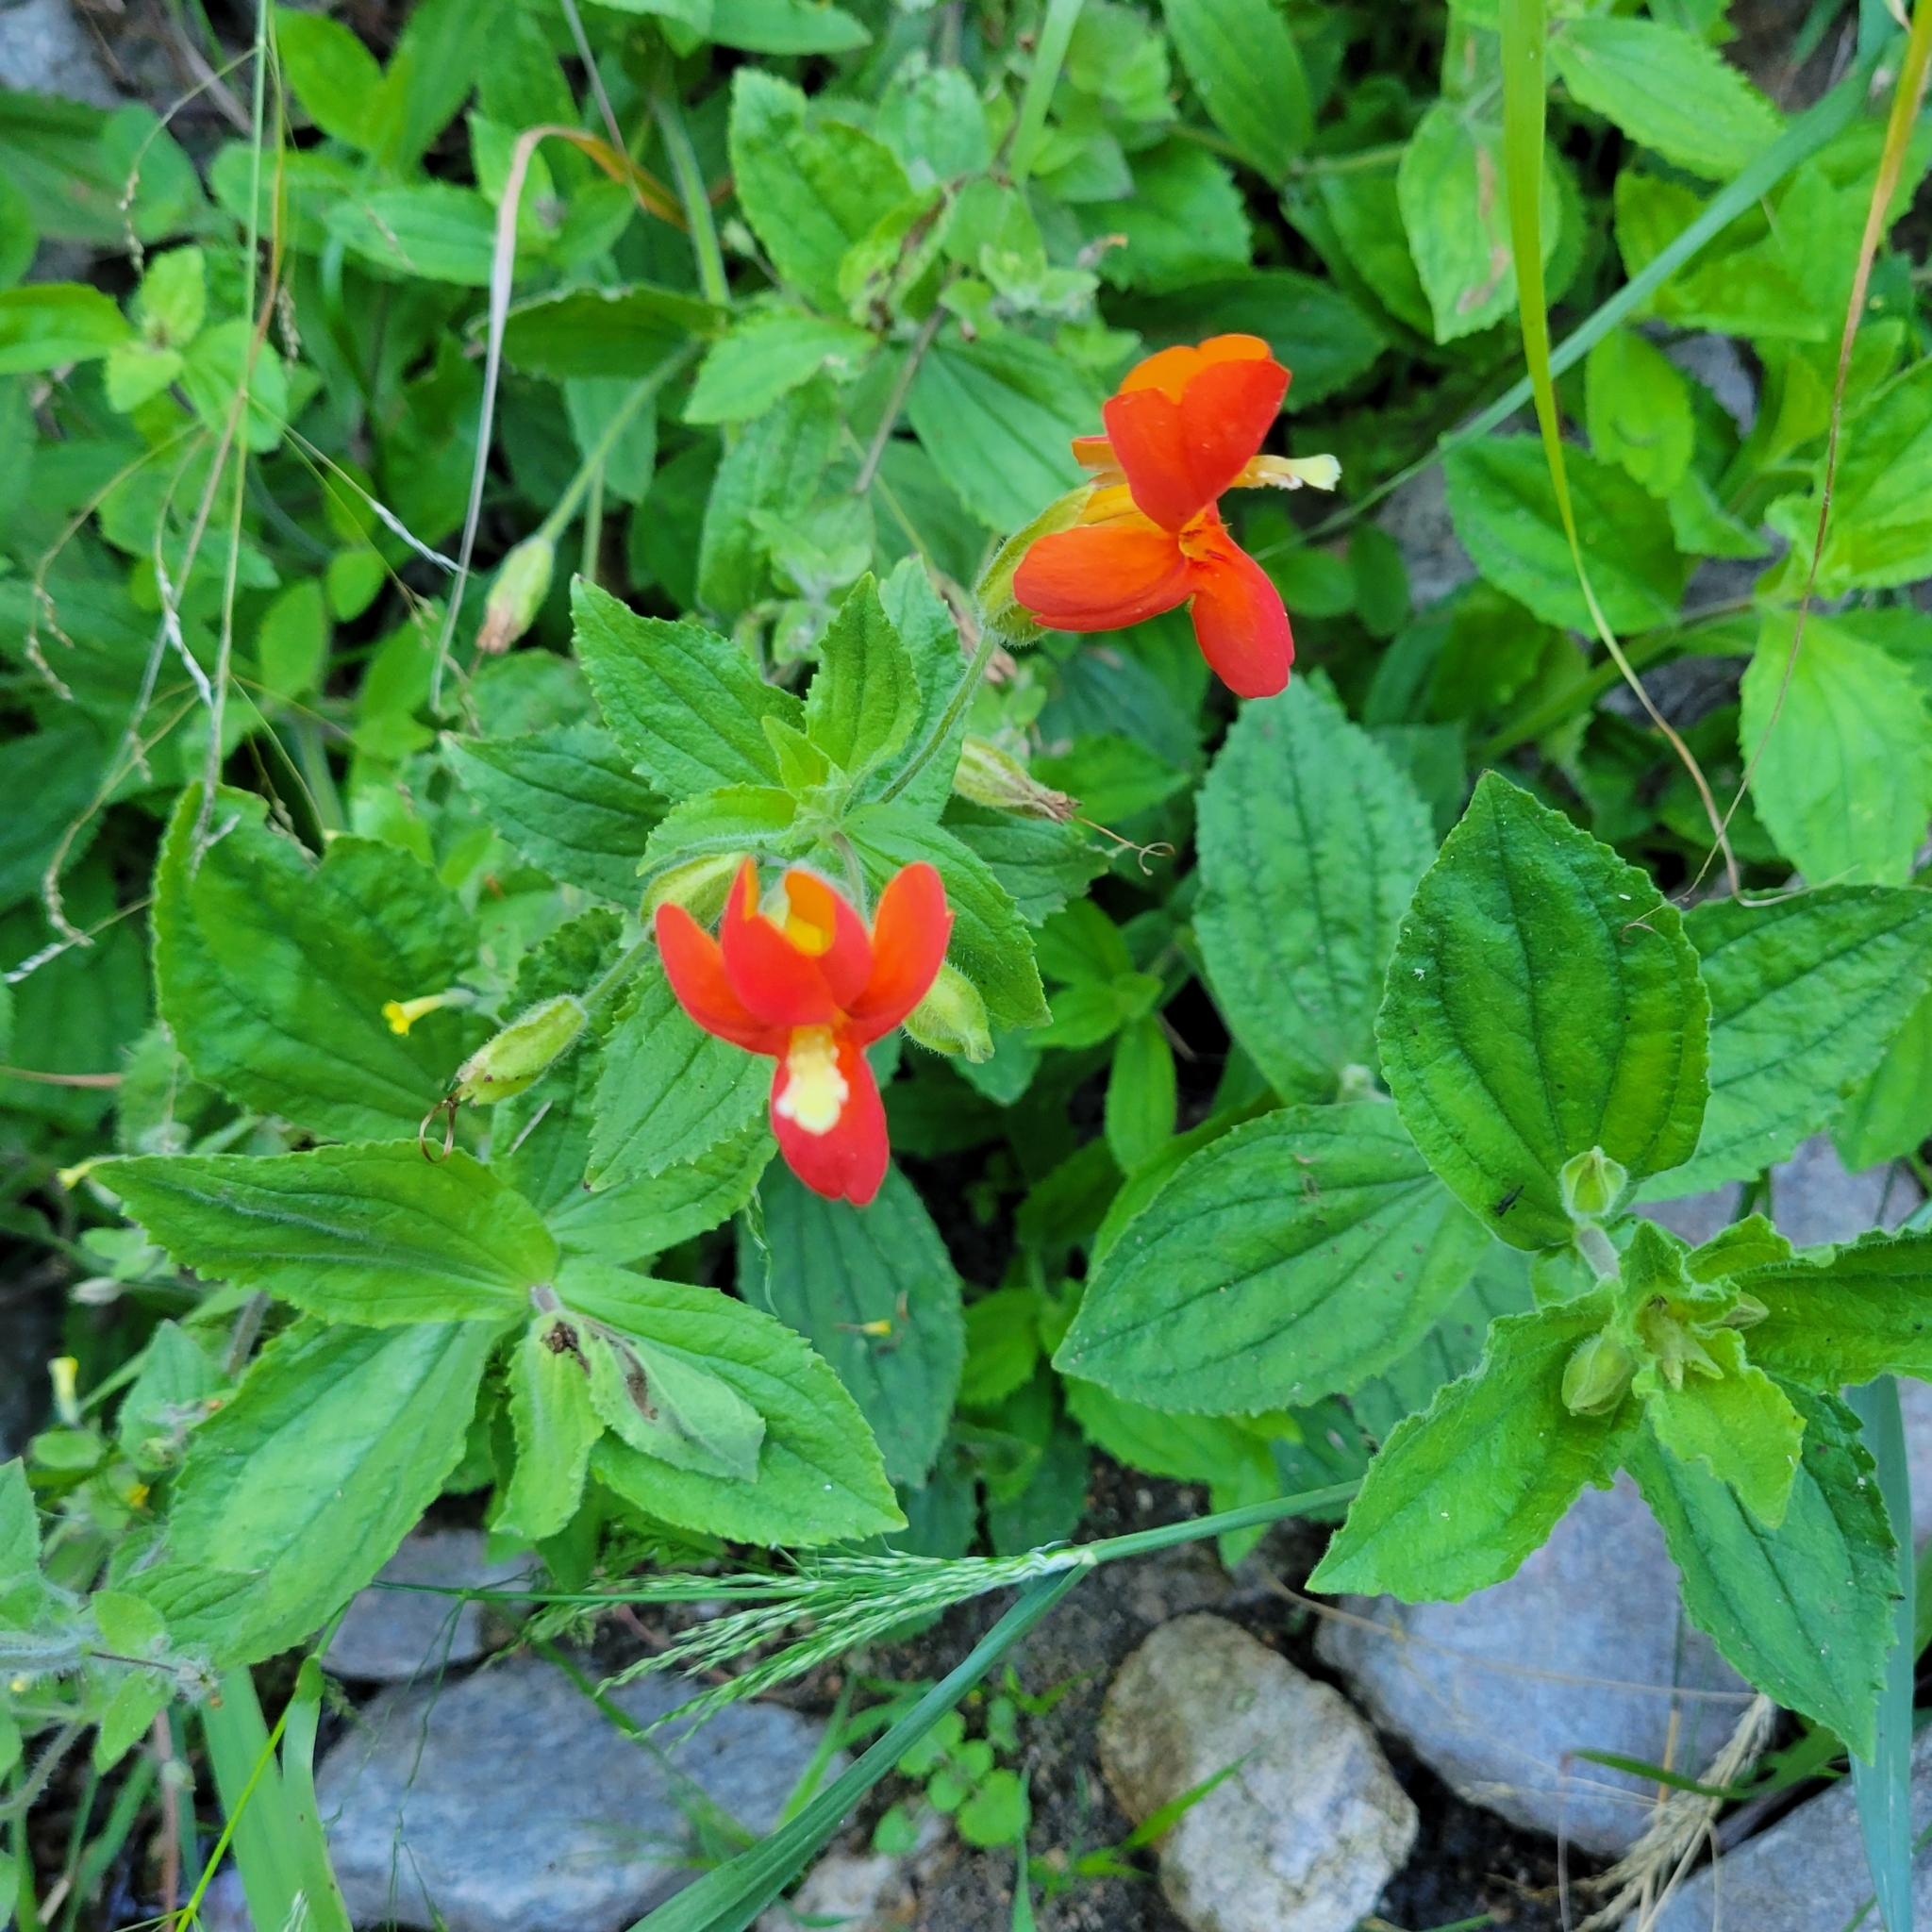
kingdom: Plantae
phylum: Tracheophyta
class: Magnoliopsida
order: Lamiales
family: Phrymaceae
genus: Erythranthe
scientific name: Erythranthe cardinalis
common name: Scarlet monkey-flower
